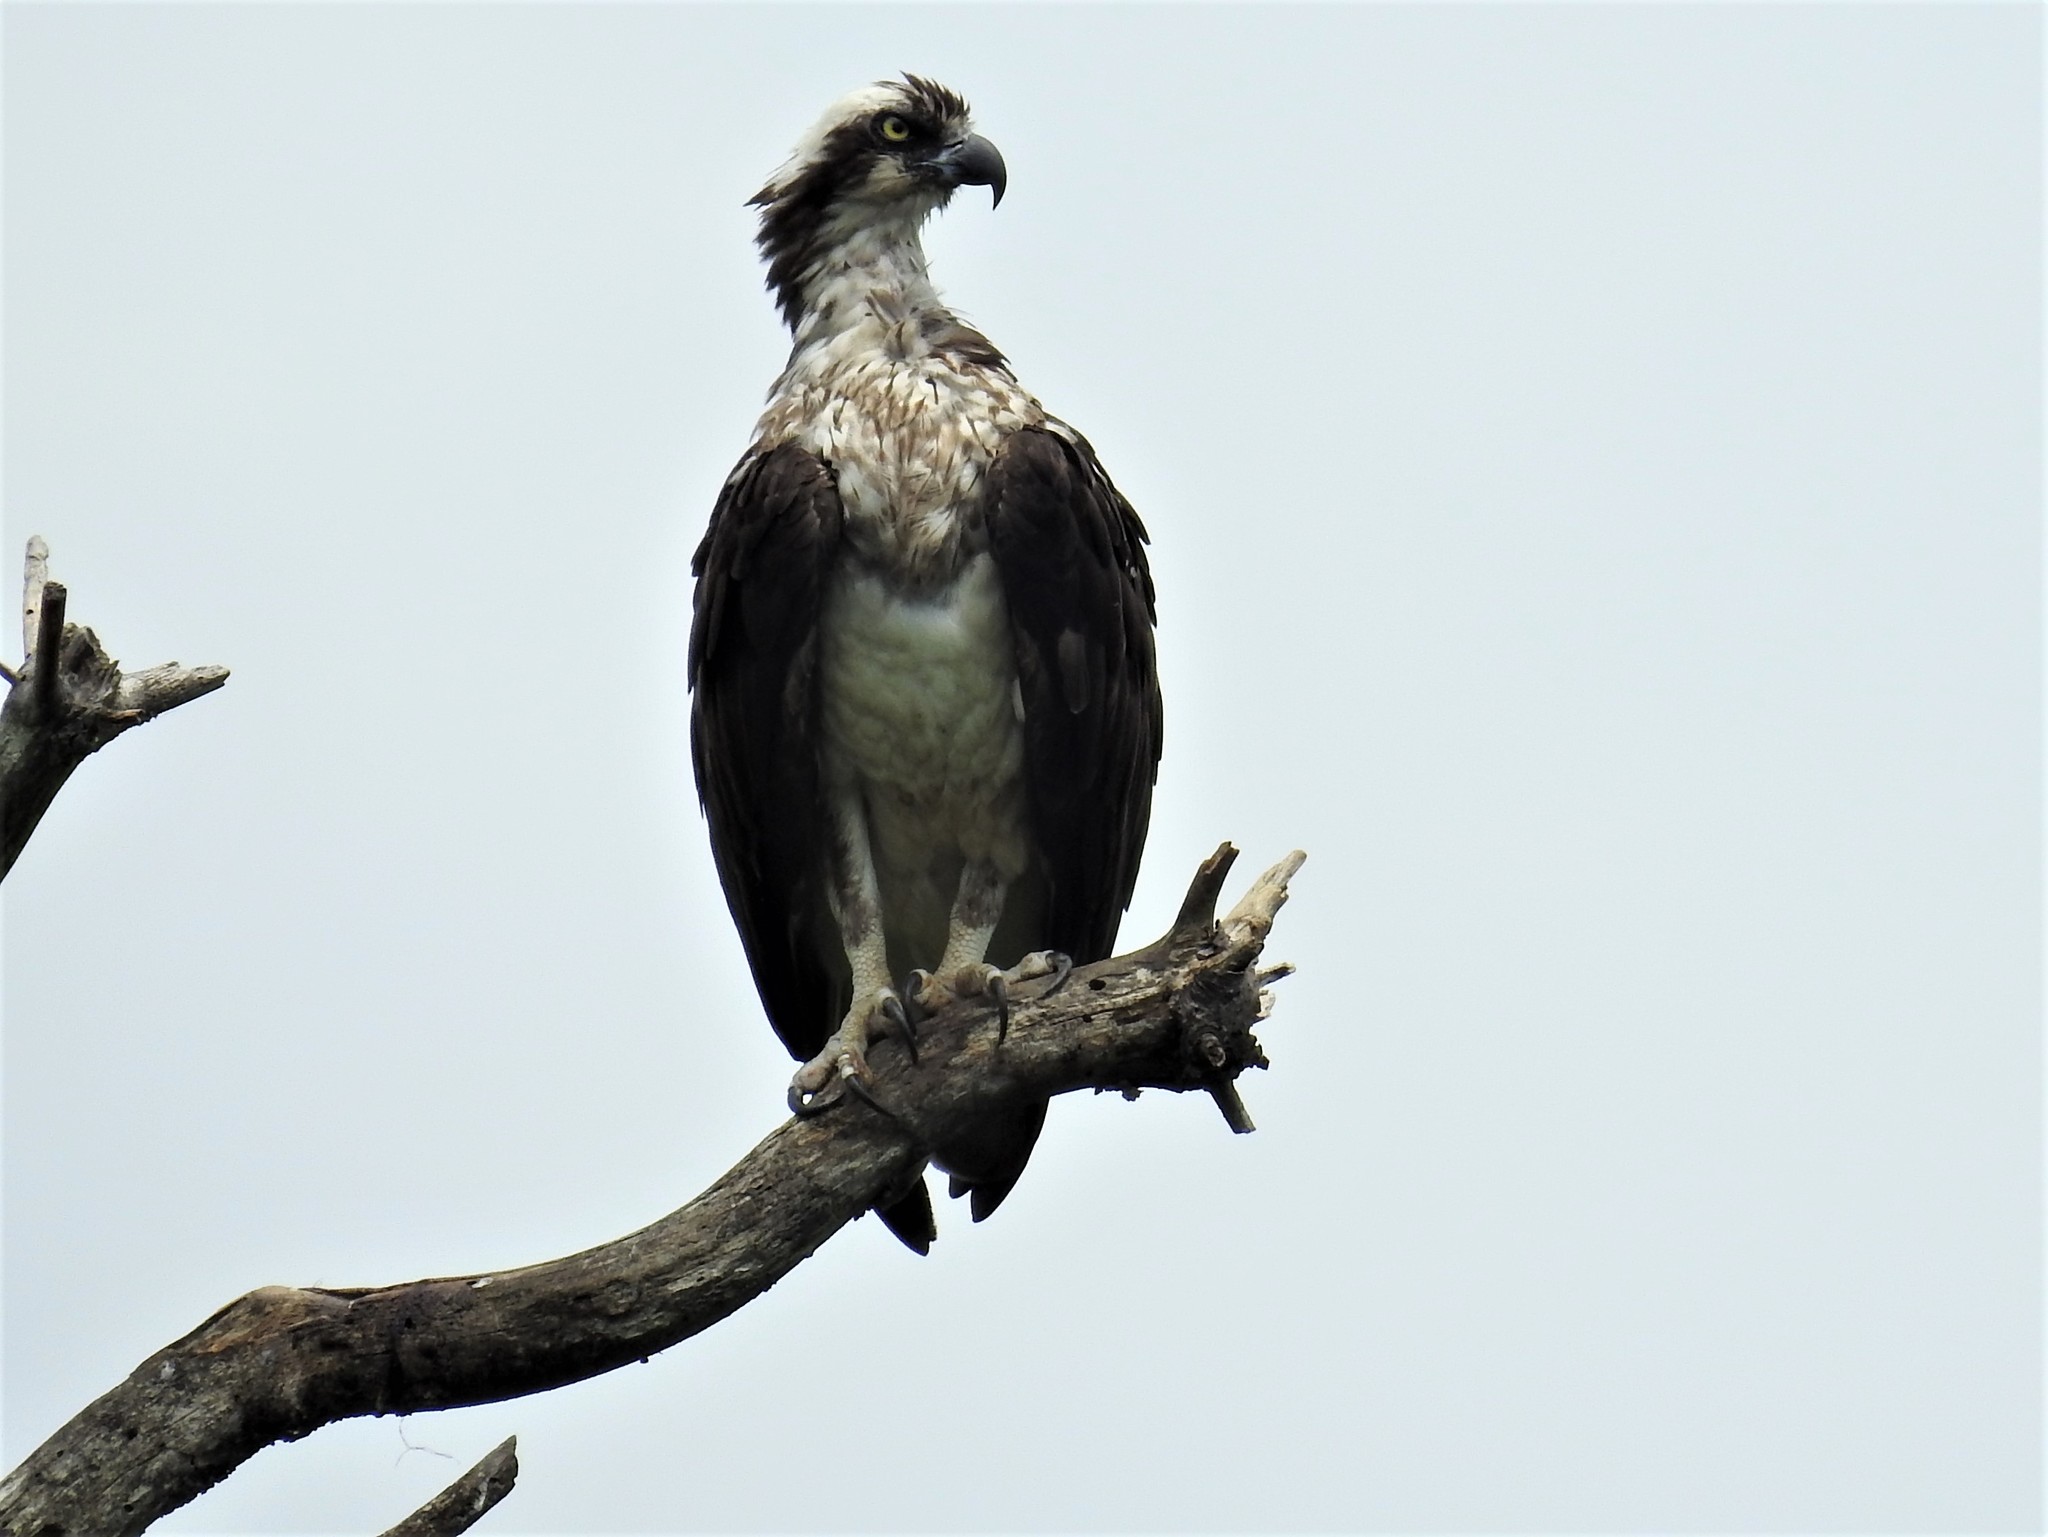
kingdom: Animalia
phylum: Chordata
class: Aves
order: Accipitriformes
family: Pandionidae
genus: Pandion
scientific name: Pandion haliaetus
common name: Osprey
